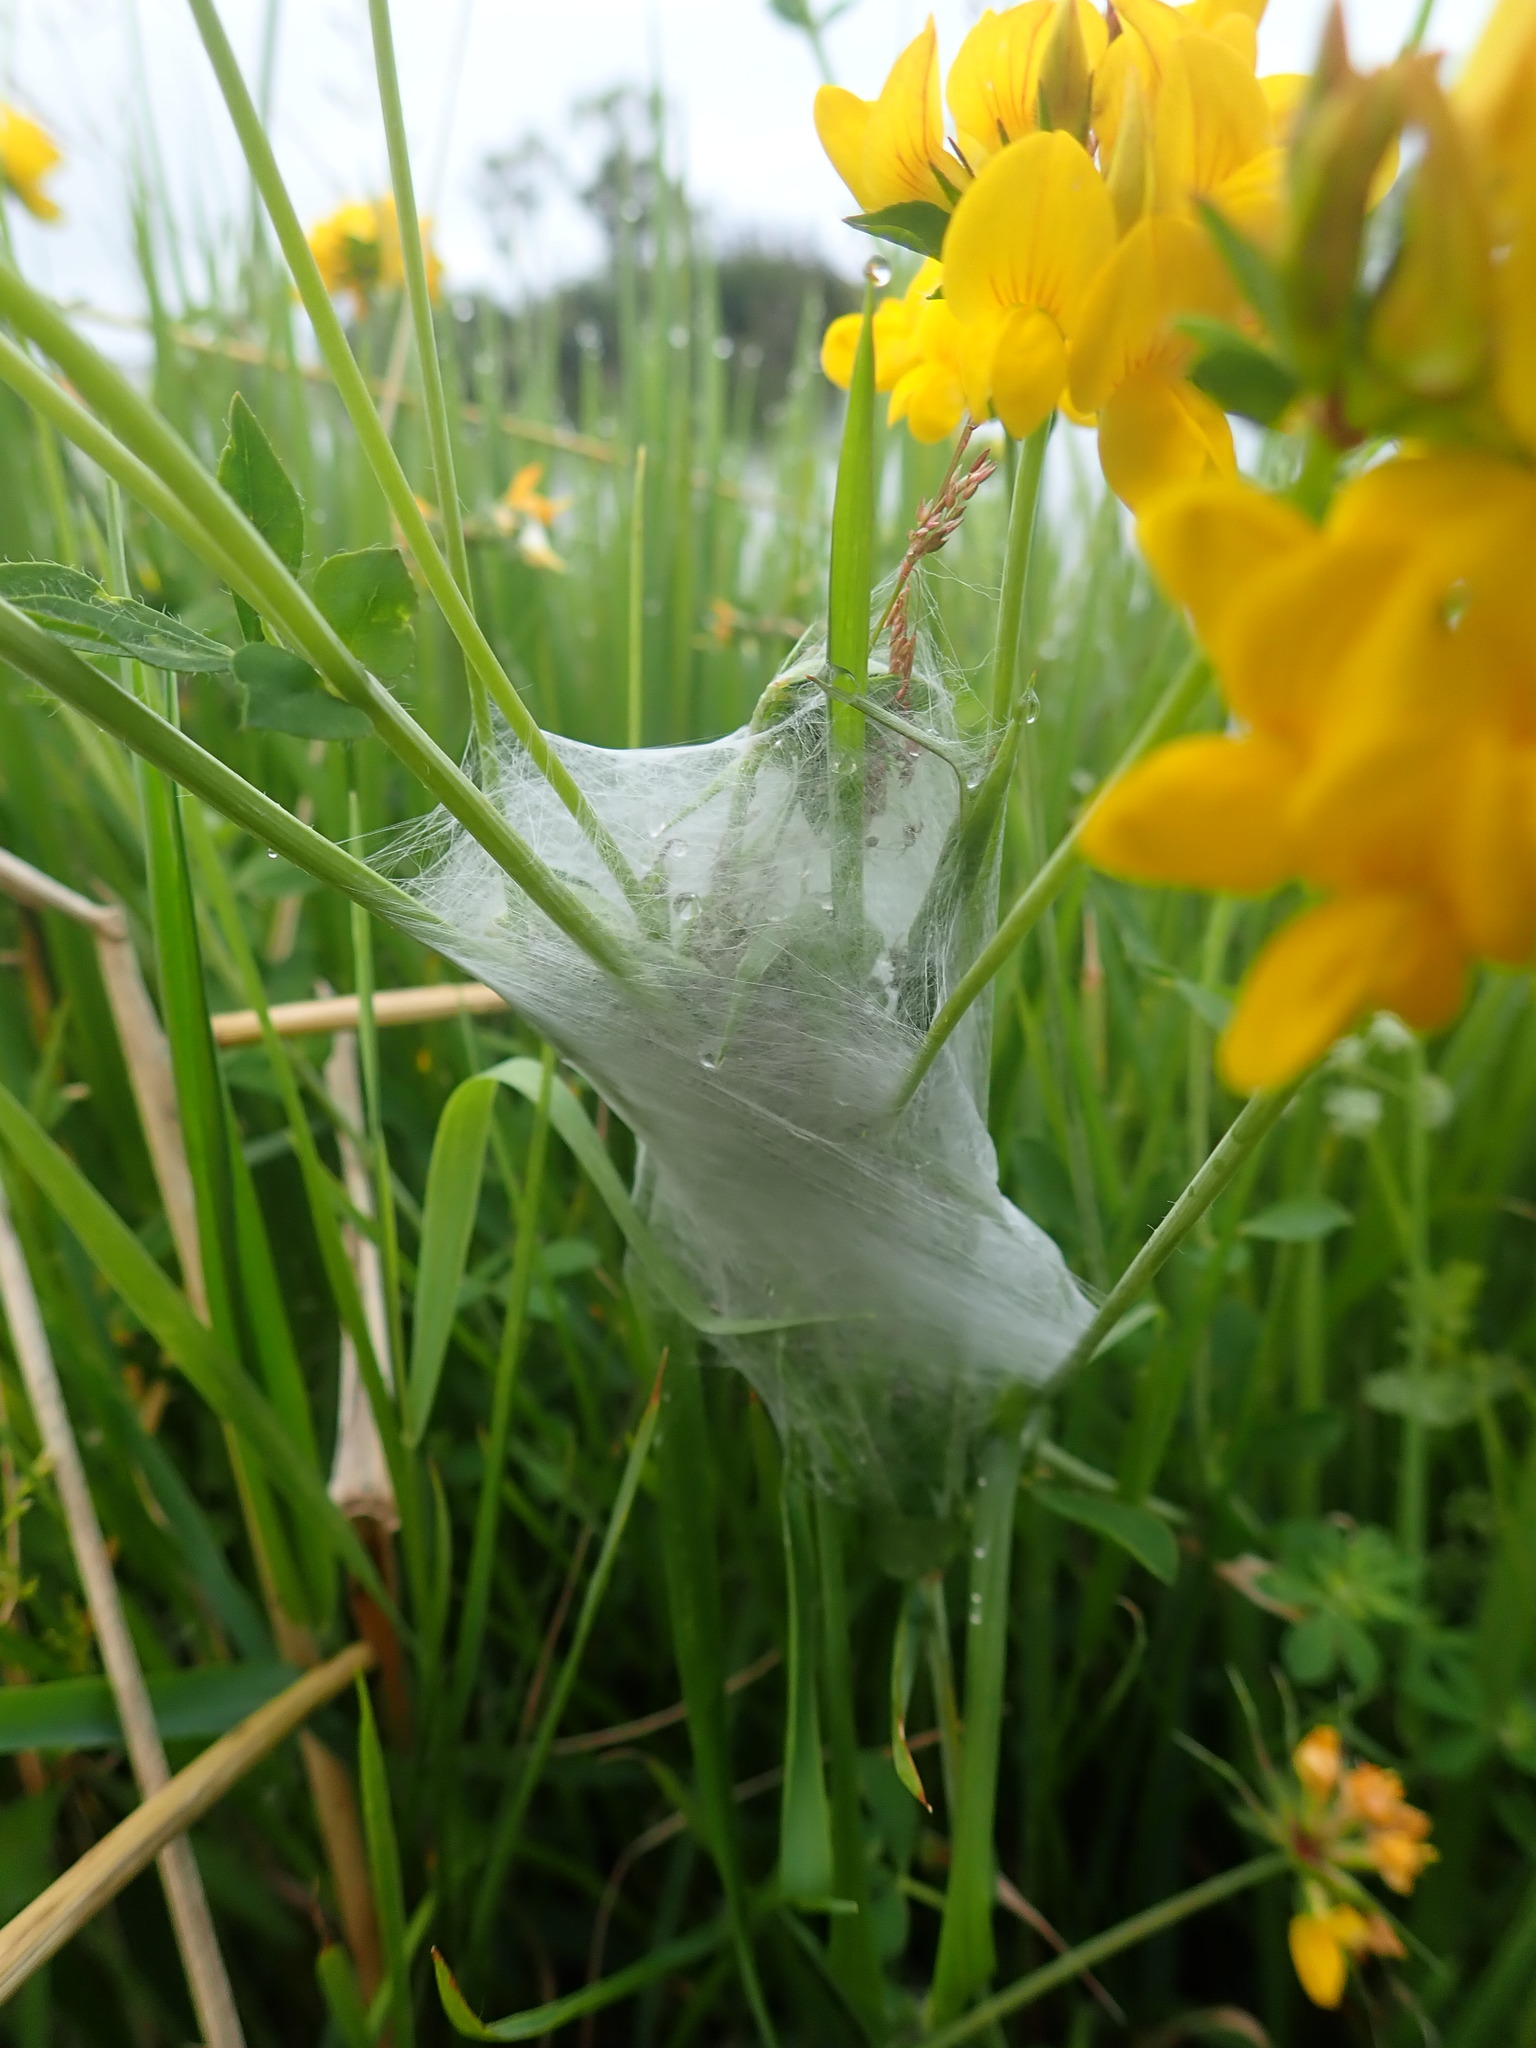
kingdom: Animalia
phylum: Arthropoda
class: Arachnida
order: Araneae
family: Pisauridae
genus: Dolomedes
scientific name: Dolomedes minor
